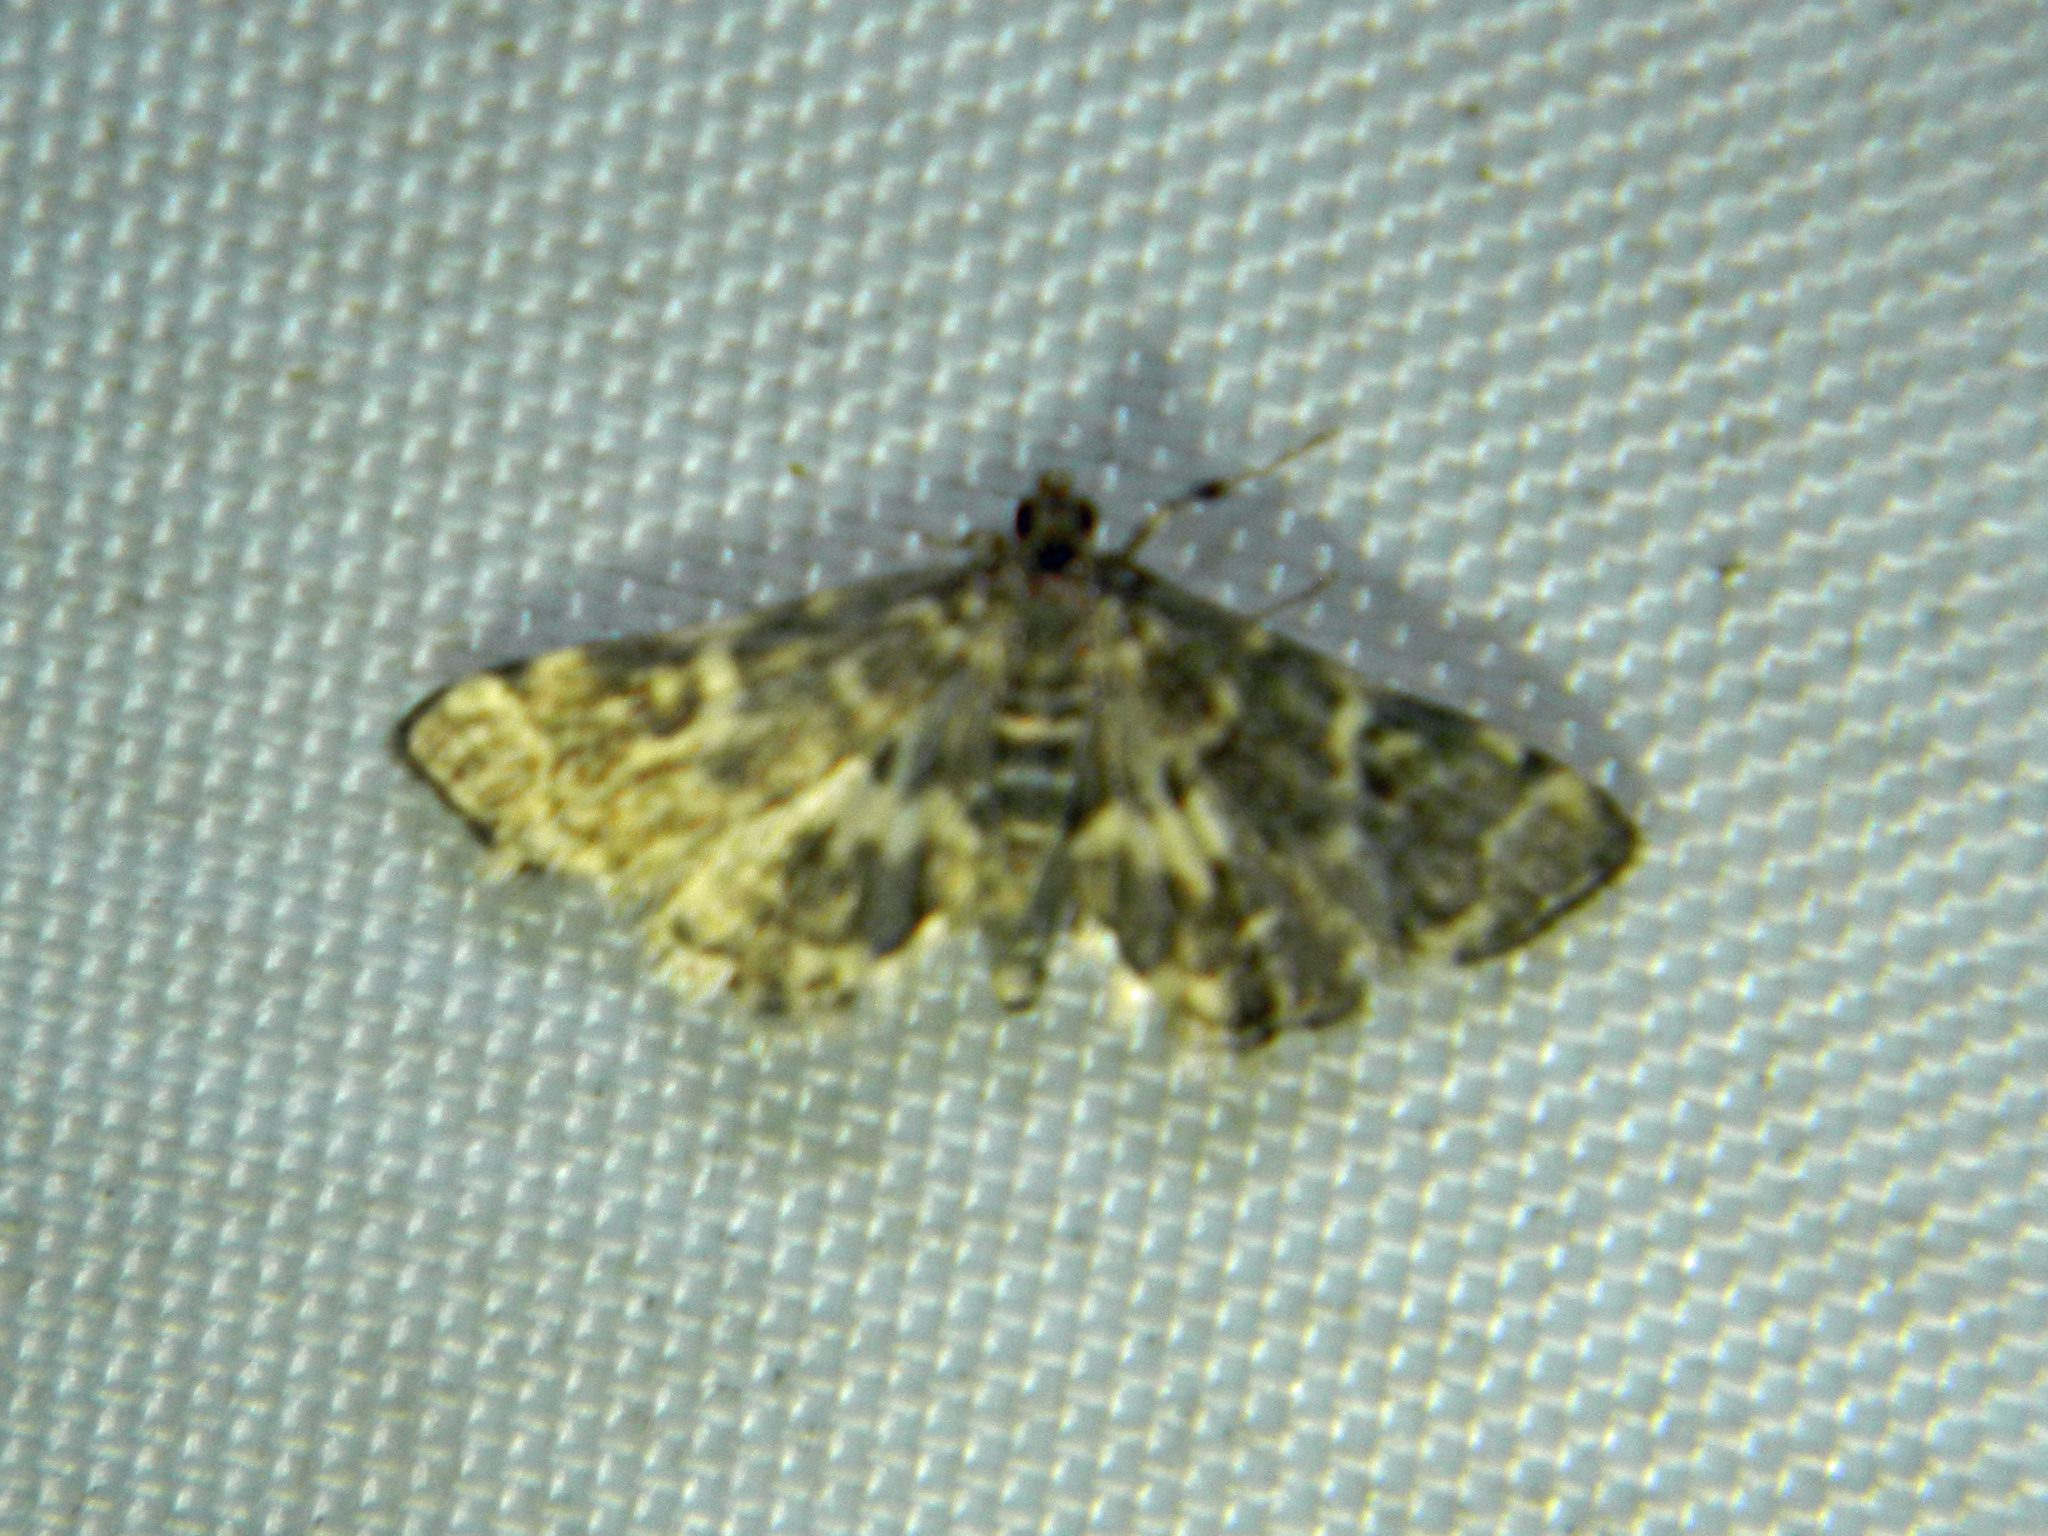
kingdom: Animalia
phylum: Arthropoda
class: Insecta
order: Lepidoptera
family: Crambidae
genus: Anageshna
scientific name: Anageshna primordialis
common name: Yellow-spotted webworm moth
